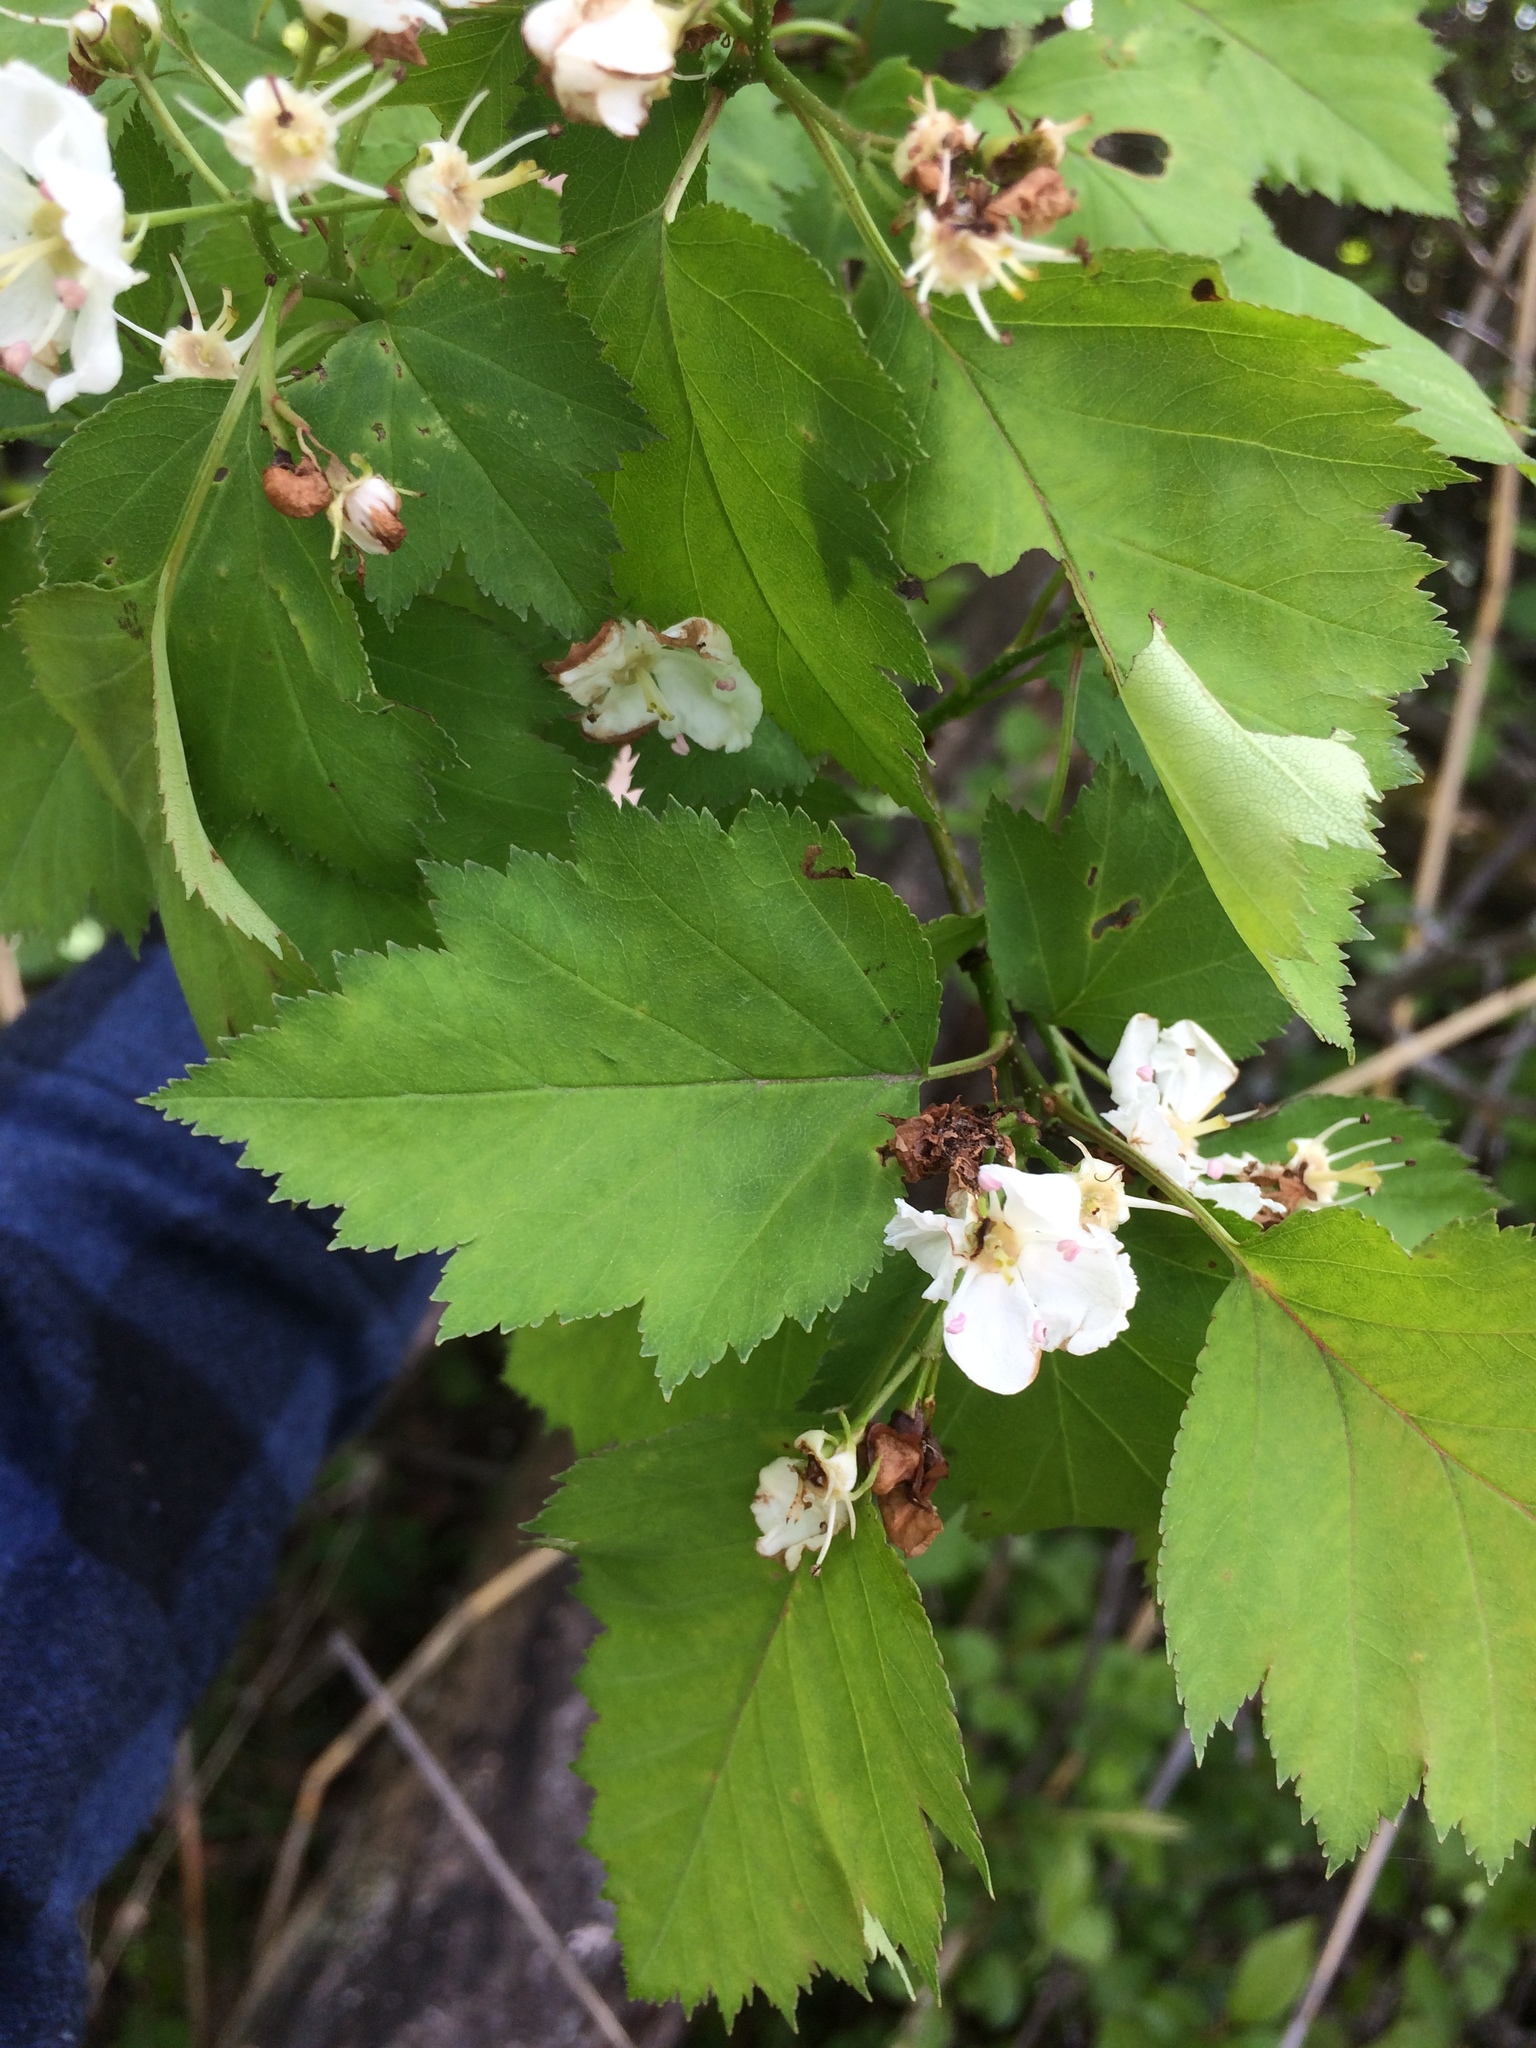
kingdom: Plantae
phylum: Tracheophyta
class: Magnoliopsida
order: Rosales
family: Rosaceae
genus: Crataegus
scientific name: Crataegus fluviatilis
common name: Fort sheridan hawthorn
